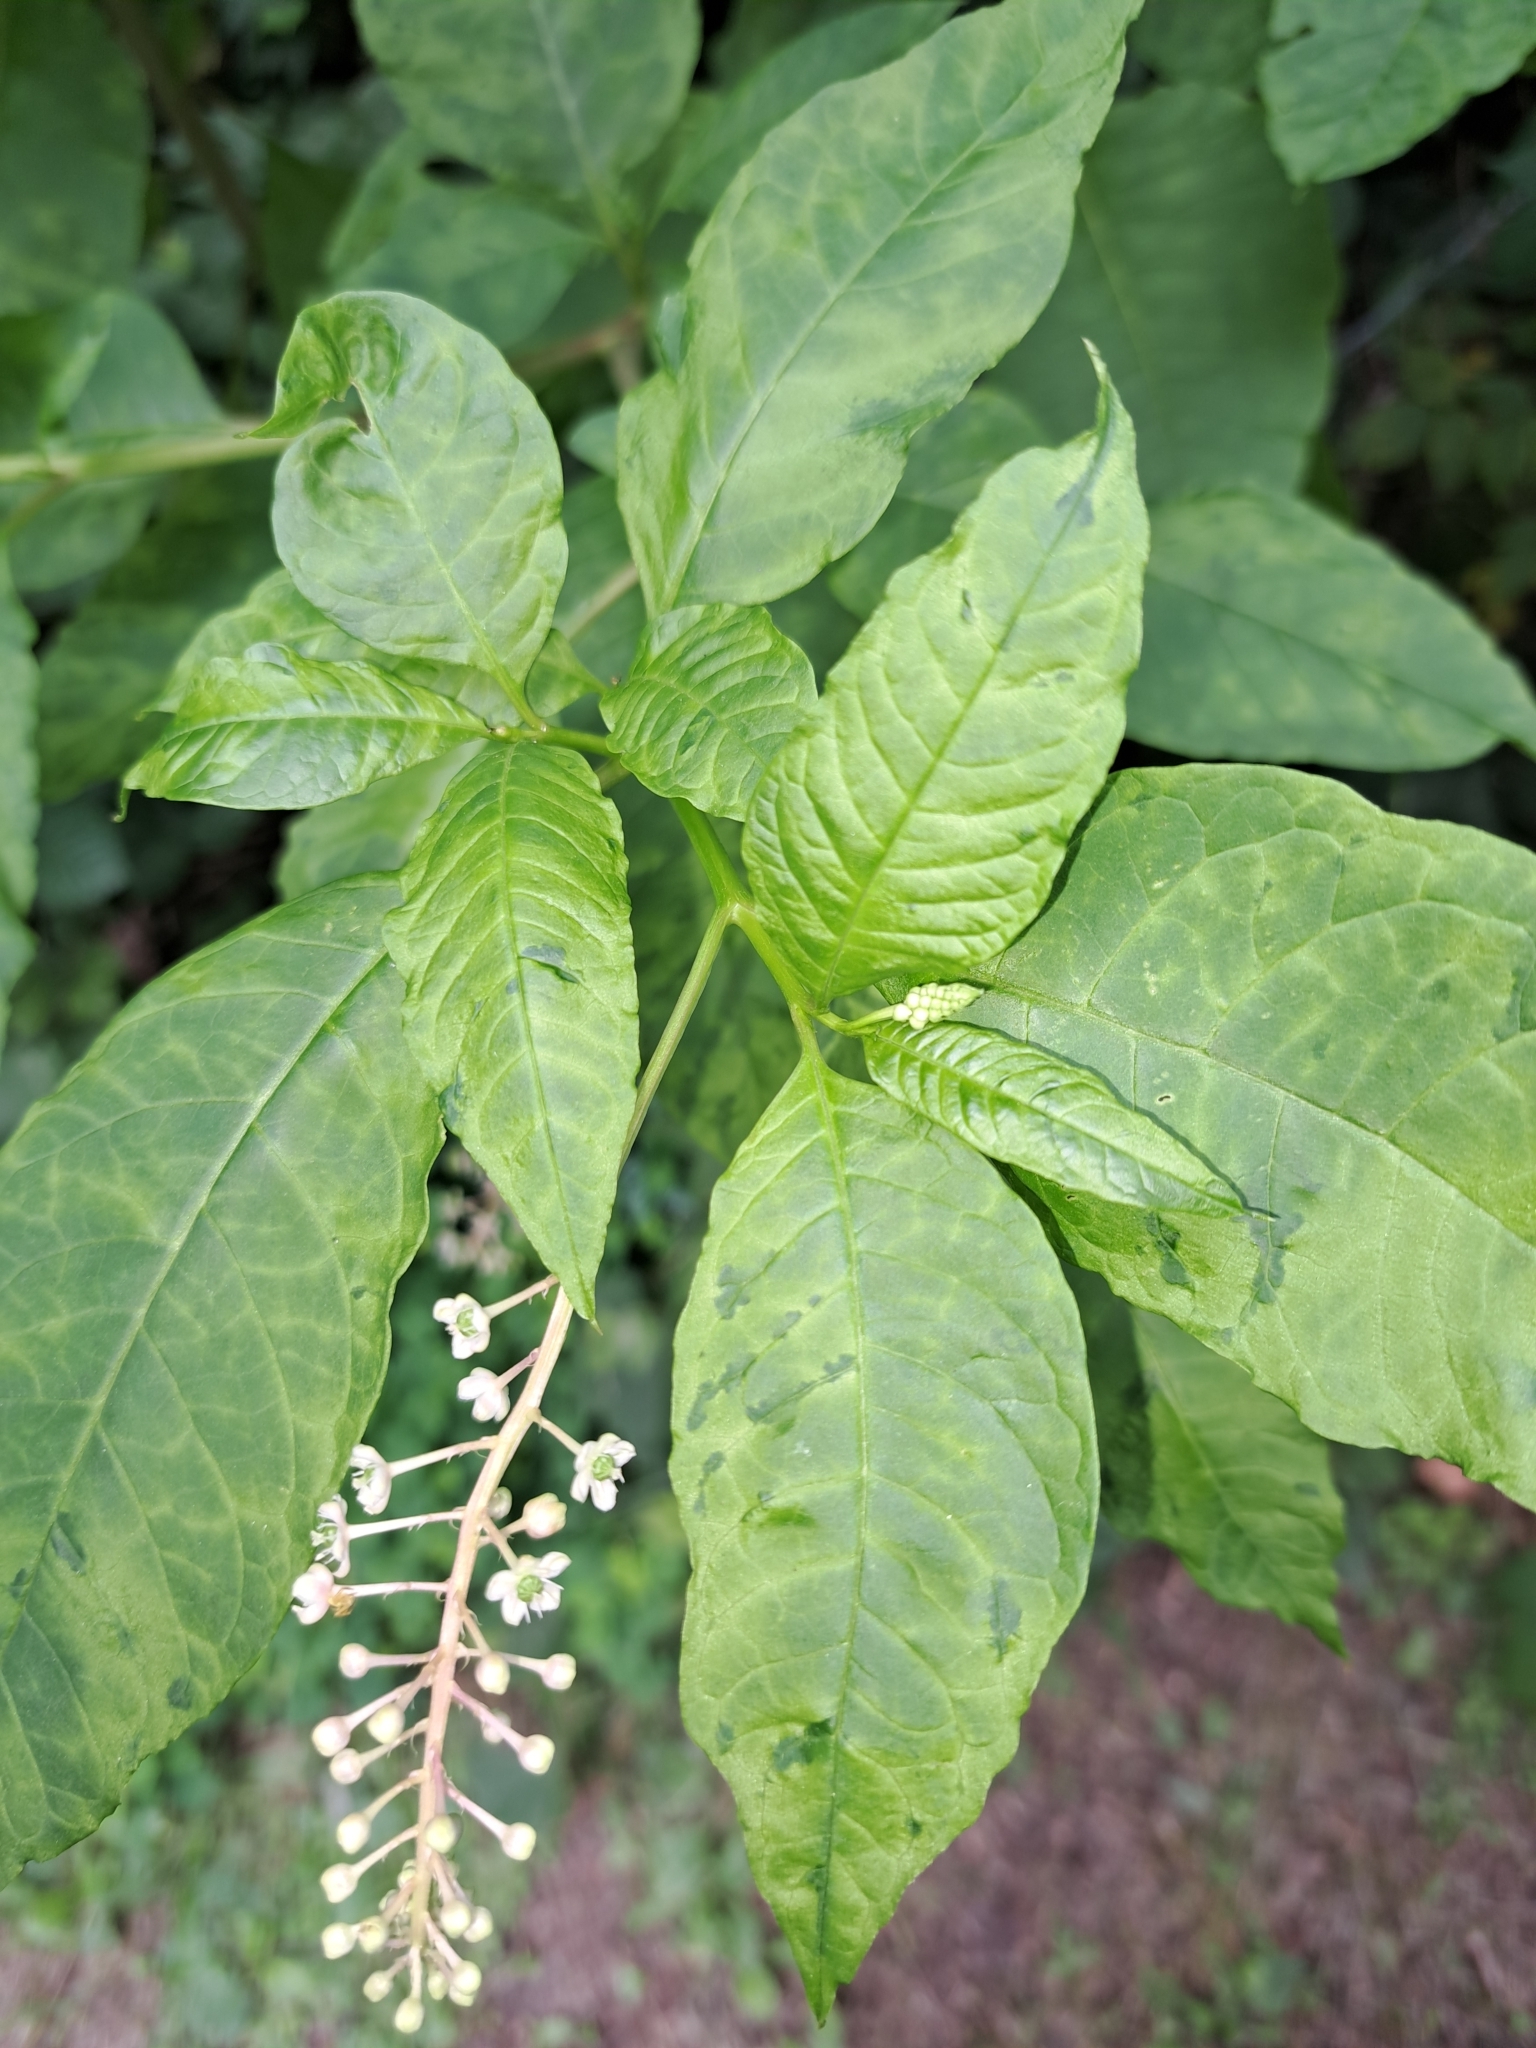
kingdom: Plantae
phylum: Tracheophyta
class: Magnoliopsida
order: Caryophyllales
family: Phytolaccaceae
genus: Phytolacca
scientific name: Phytolacca americana
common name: American pokeweed
